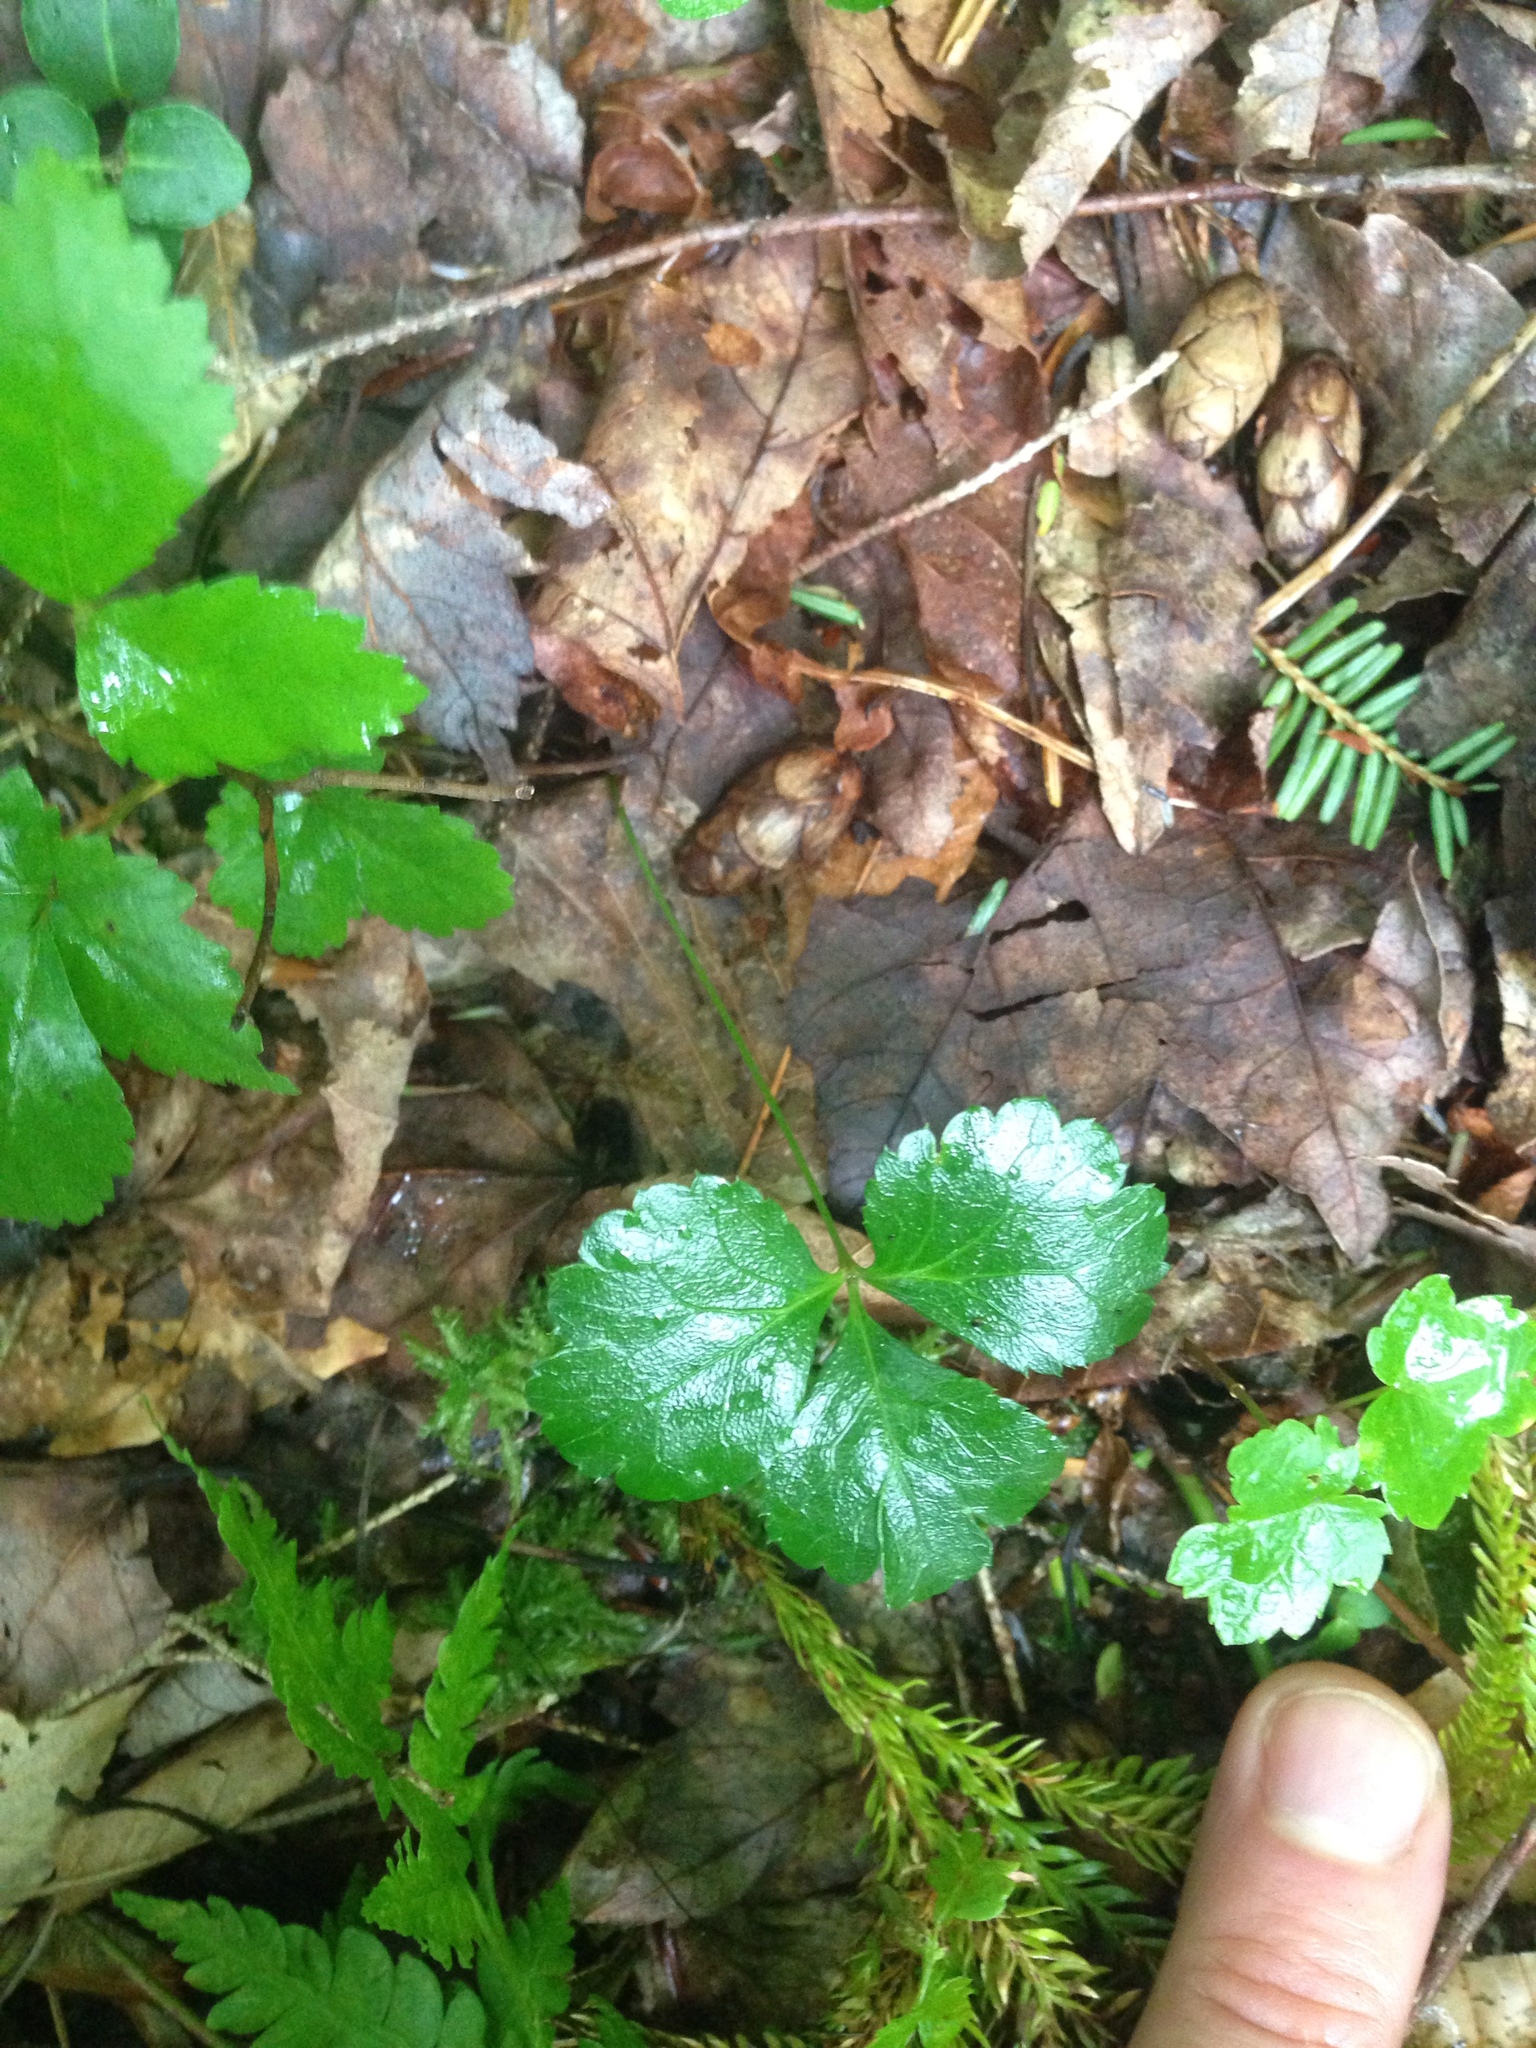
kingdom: Plantae
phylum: Tracheophyta
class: Magnoliopsida
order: Ranunculales
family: Ranunculaceae
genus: Coptis
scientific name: Coptis trifolia
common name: Canker-root
